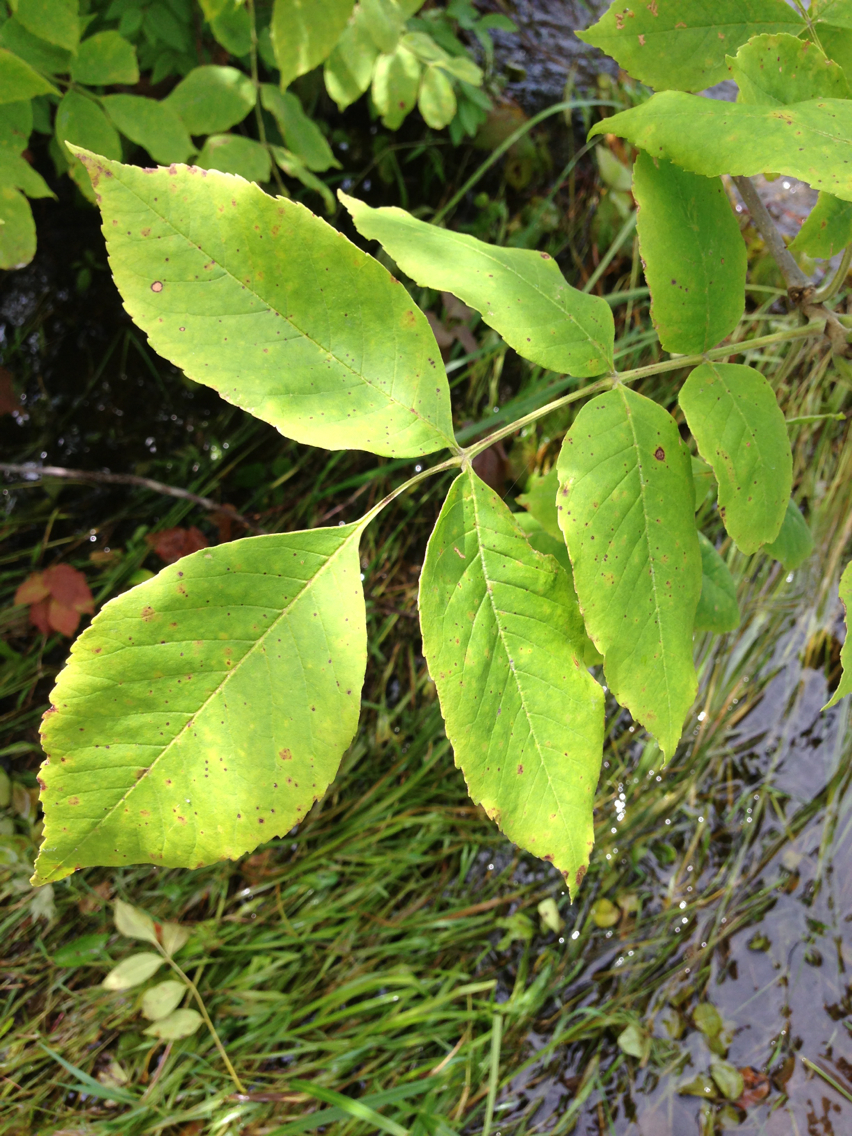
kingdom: Plantae
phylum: Tracheophyta
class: Magnoliopsida
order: Lamiales
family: Oleaceae
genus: Fraxinus
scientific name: Fraxinus pennsylvanica
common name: Green ash
